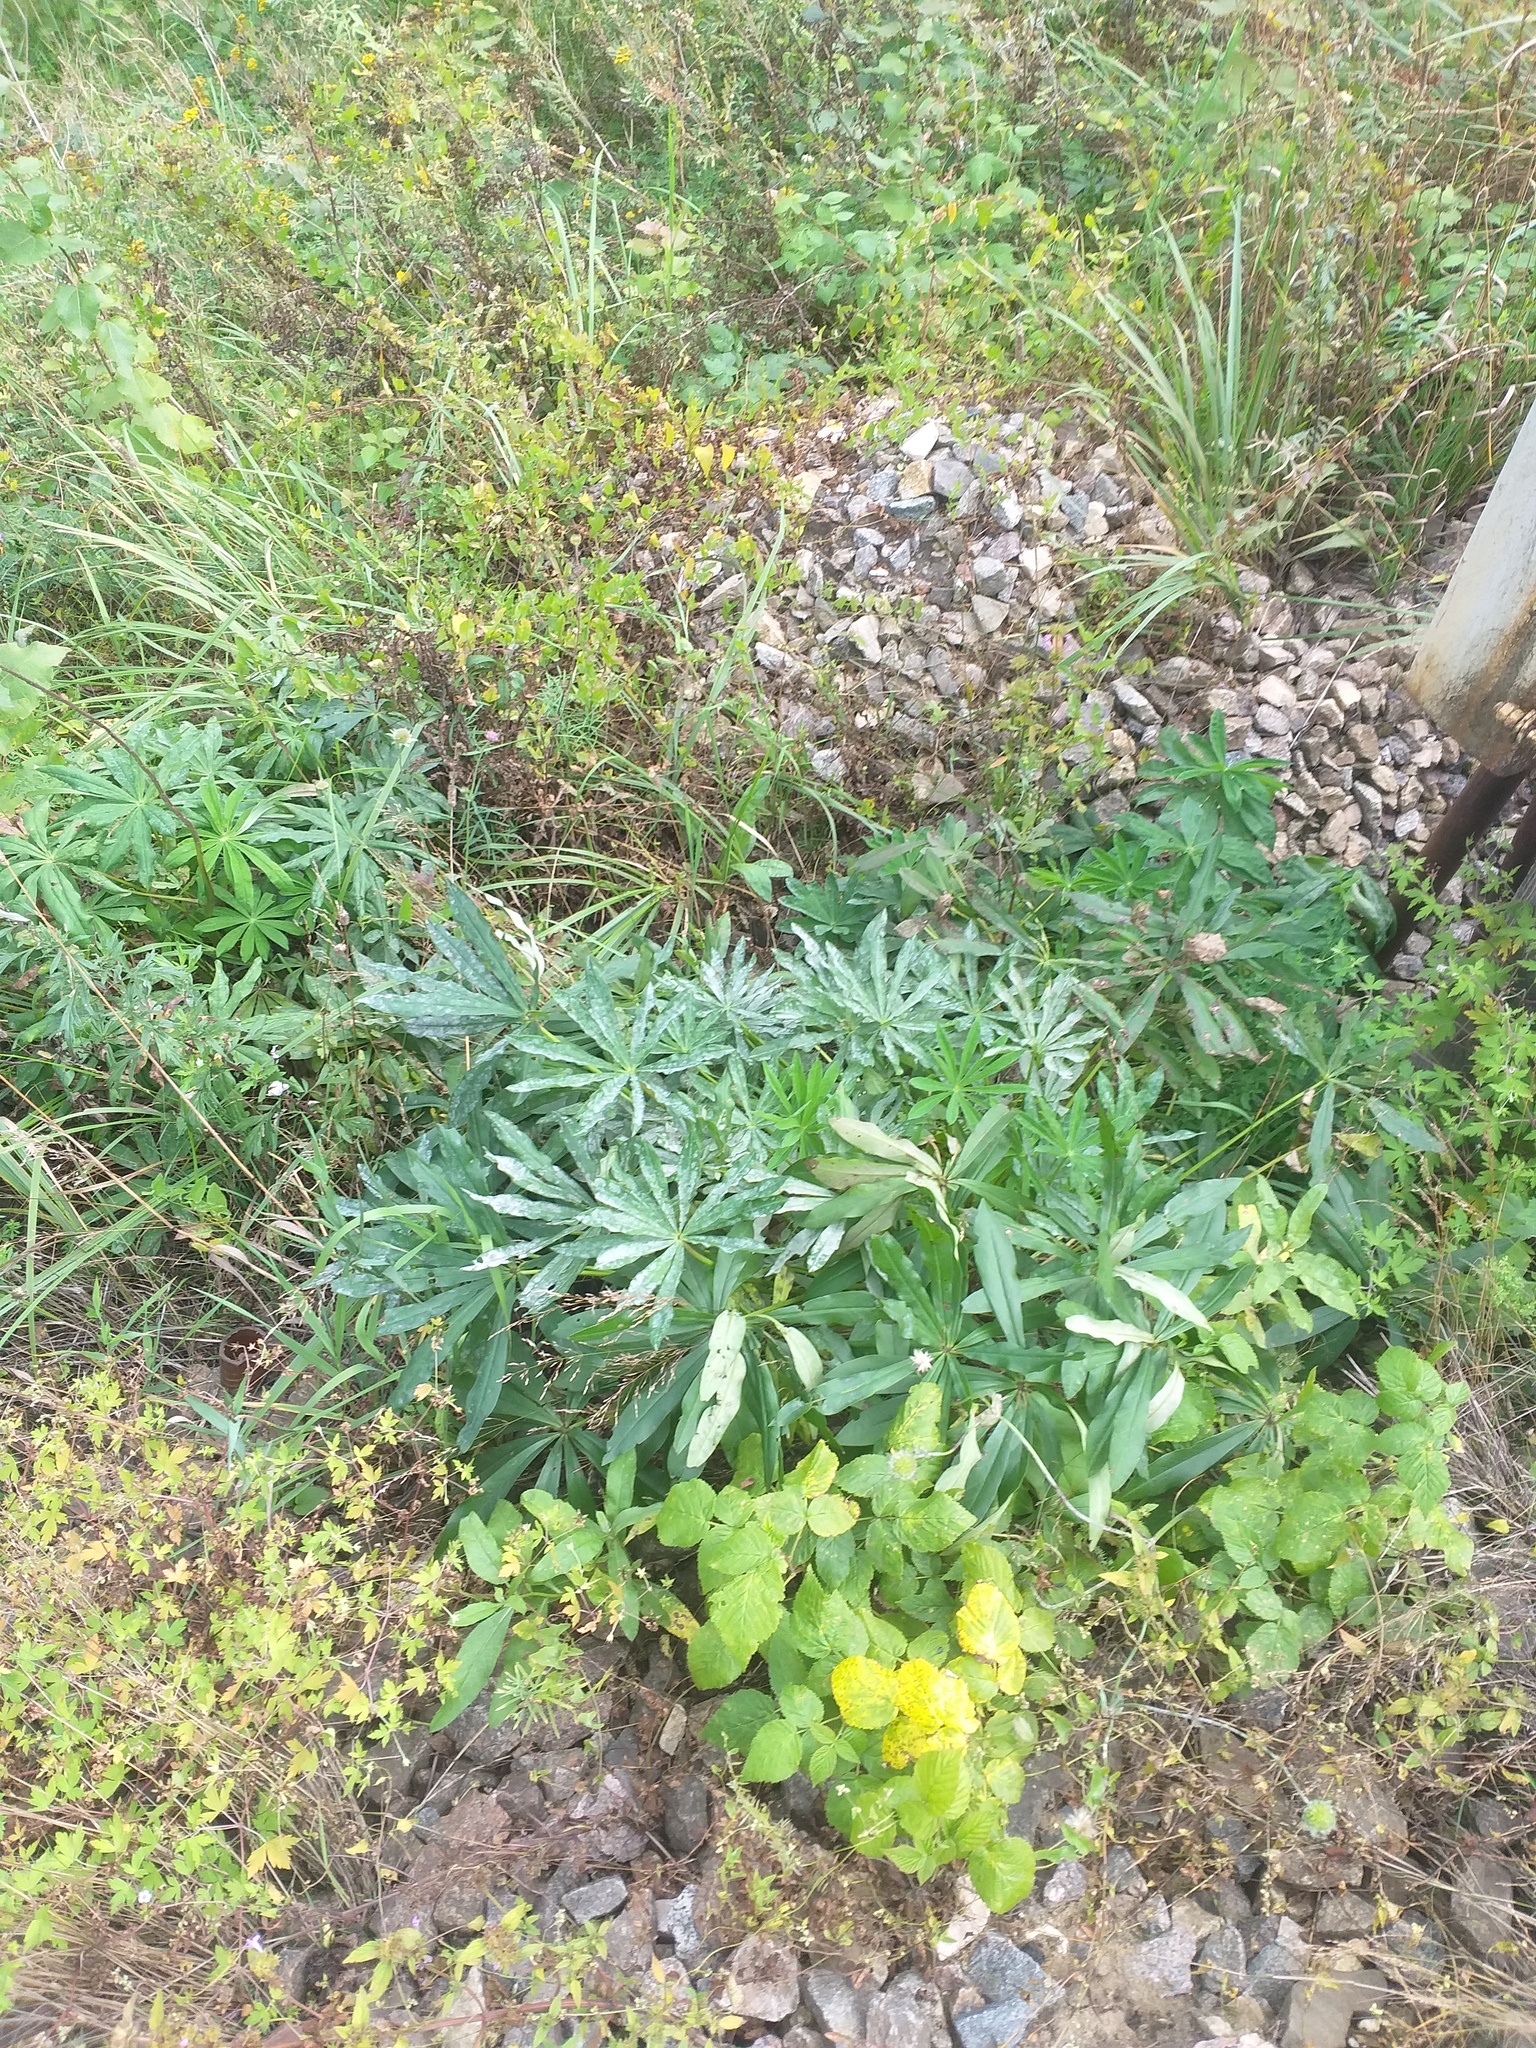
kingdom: Plantae
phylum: Tracheophyta
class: Magnoliopsida
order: Fabales
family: Fabaceae
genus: Lupinus
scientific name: Lupinus polyphyllus
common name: Garden lupin
